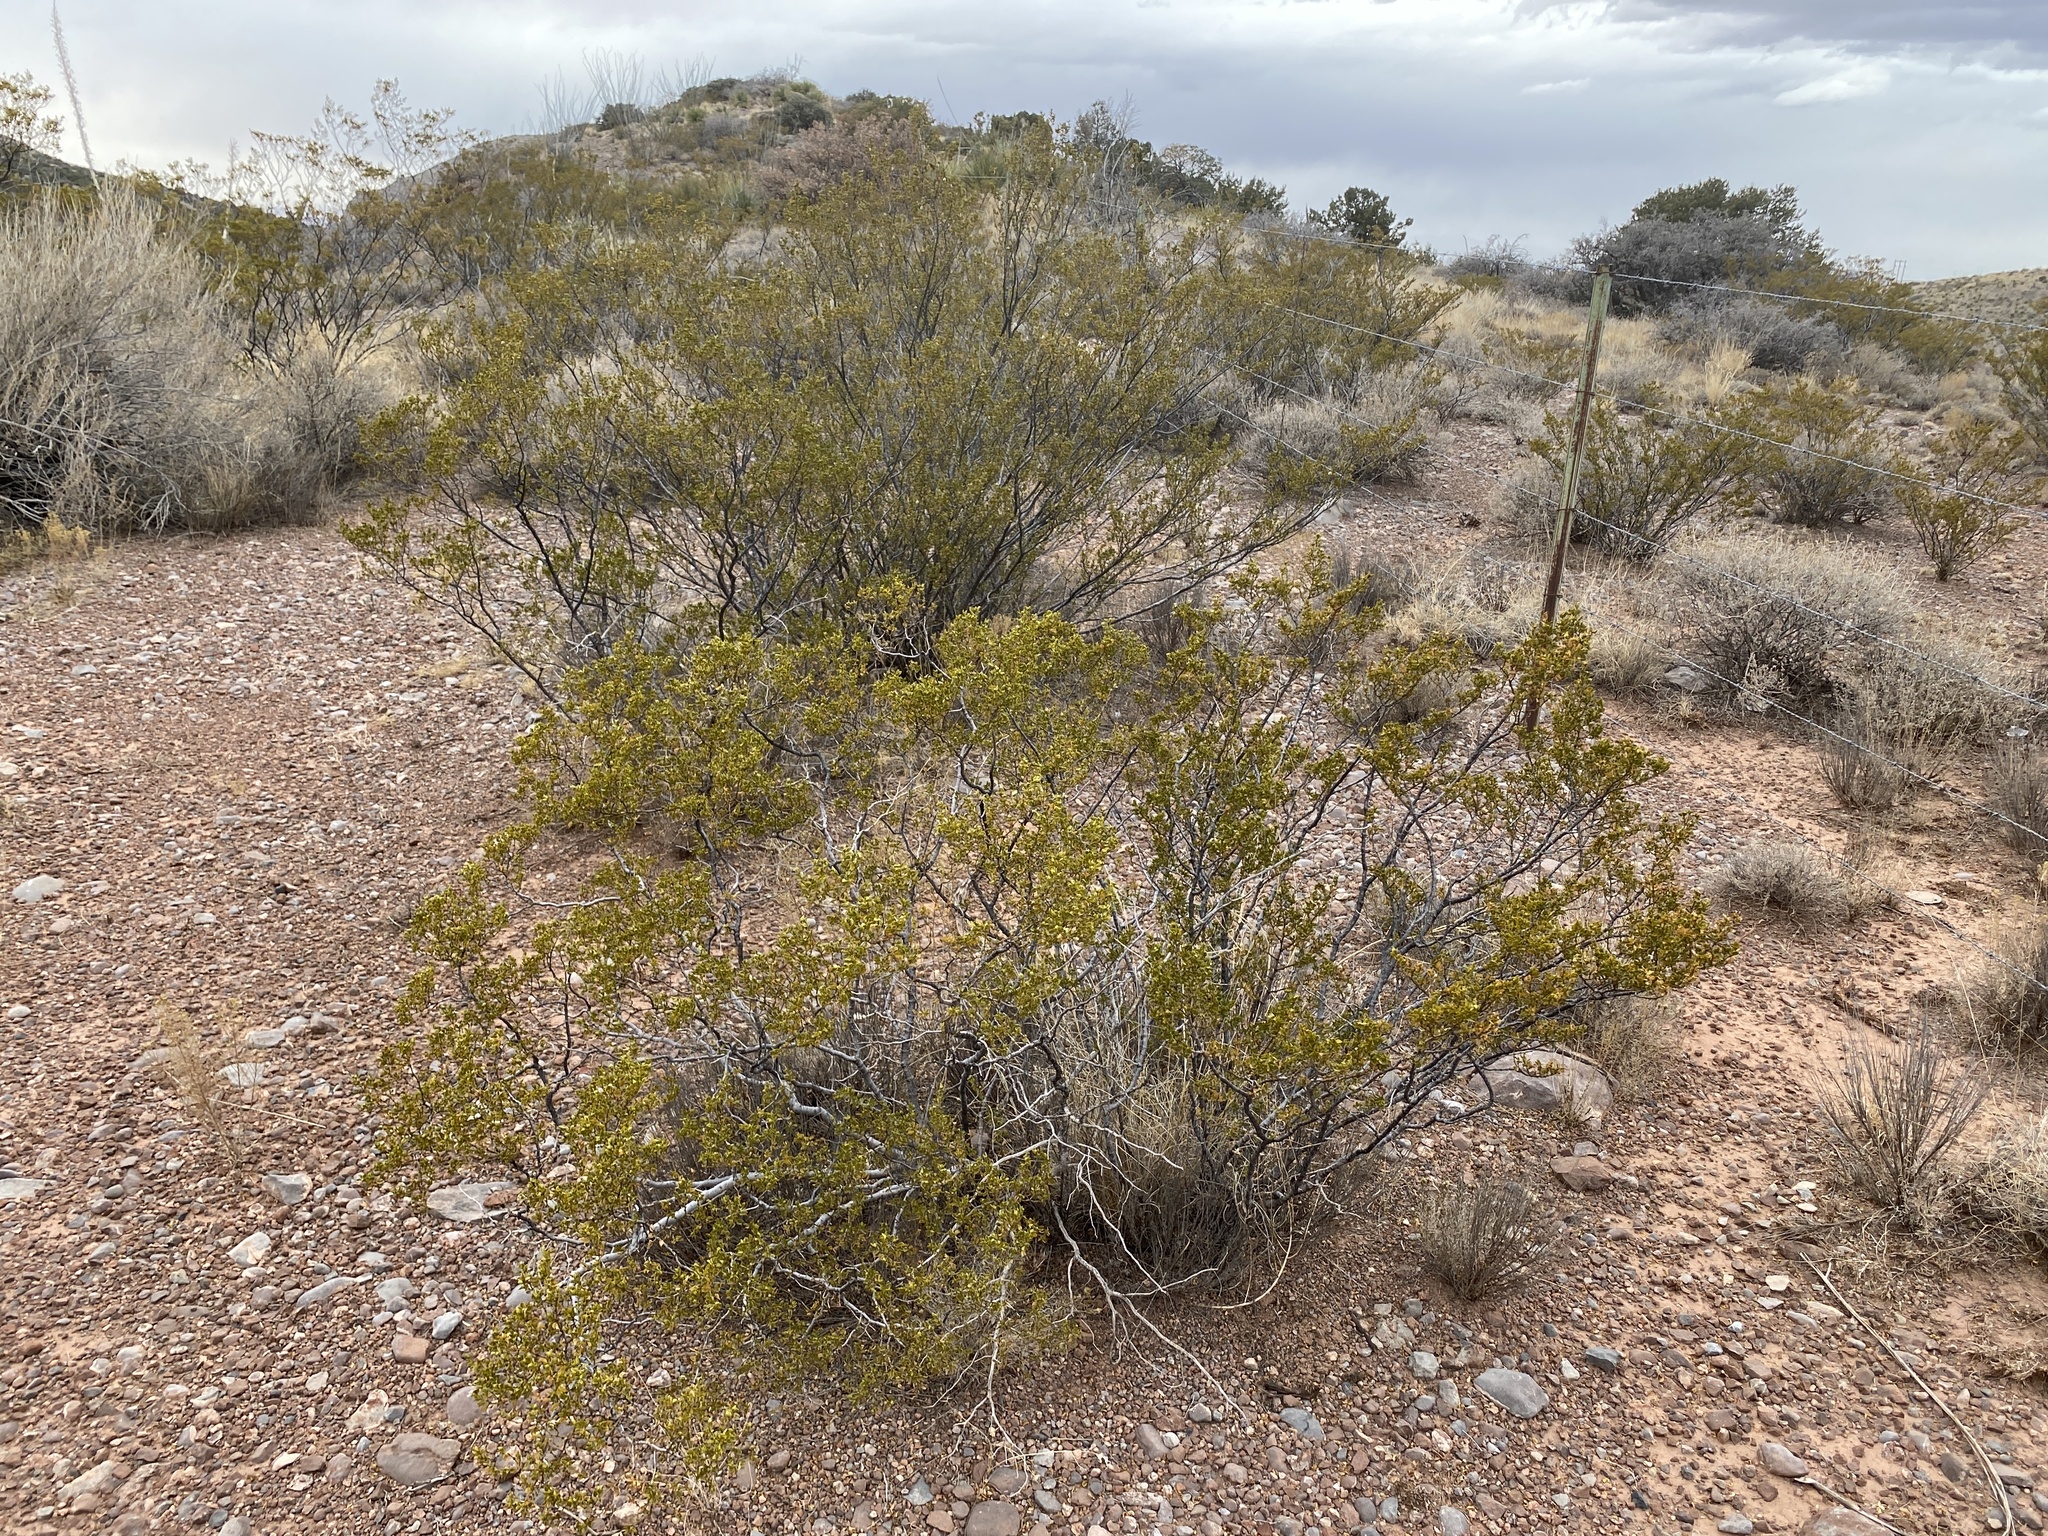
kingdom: Plantae
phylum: Tracheophyta
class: Magnoliopsida
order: Zygophyllales
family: Zygophyllaceae
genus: Larrea
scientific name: Larrea tridentata
